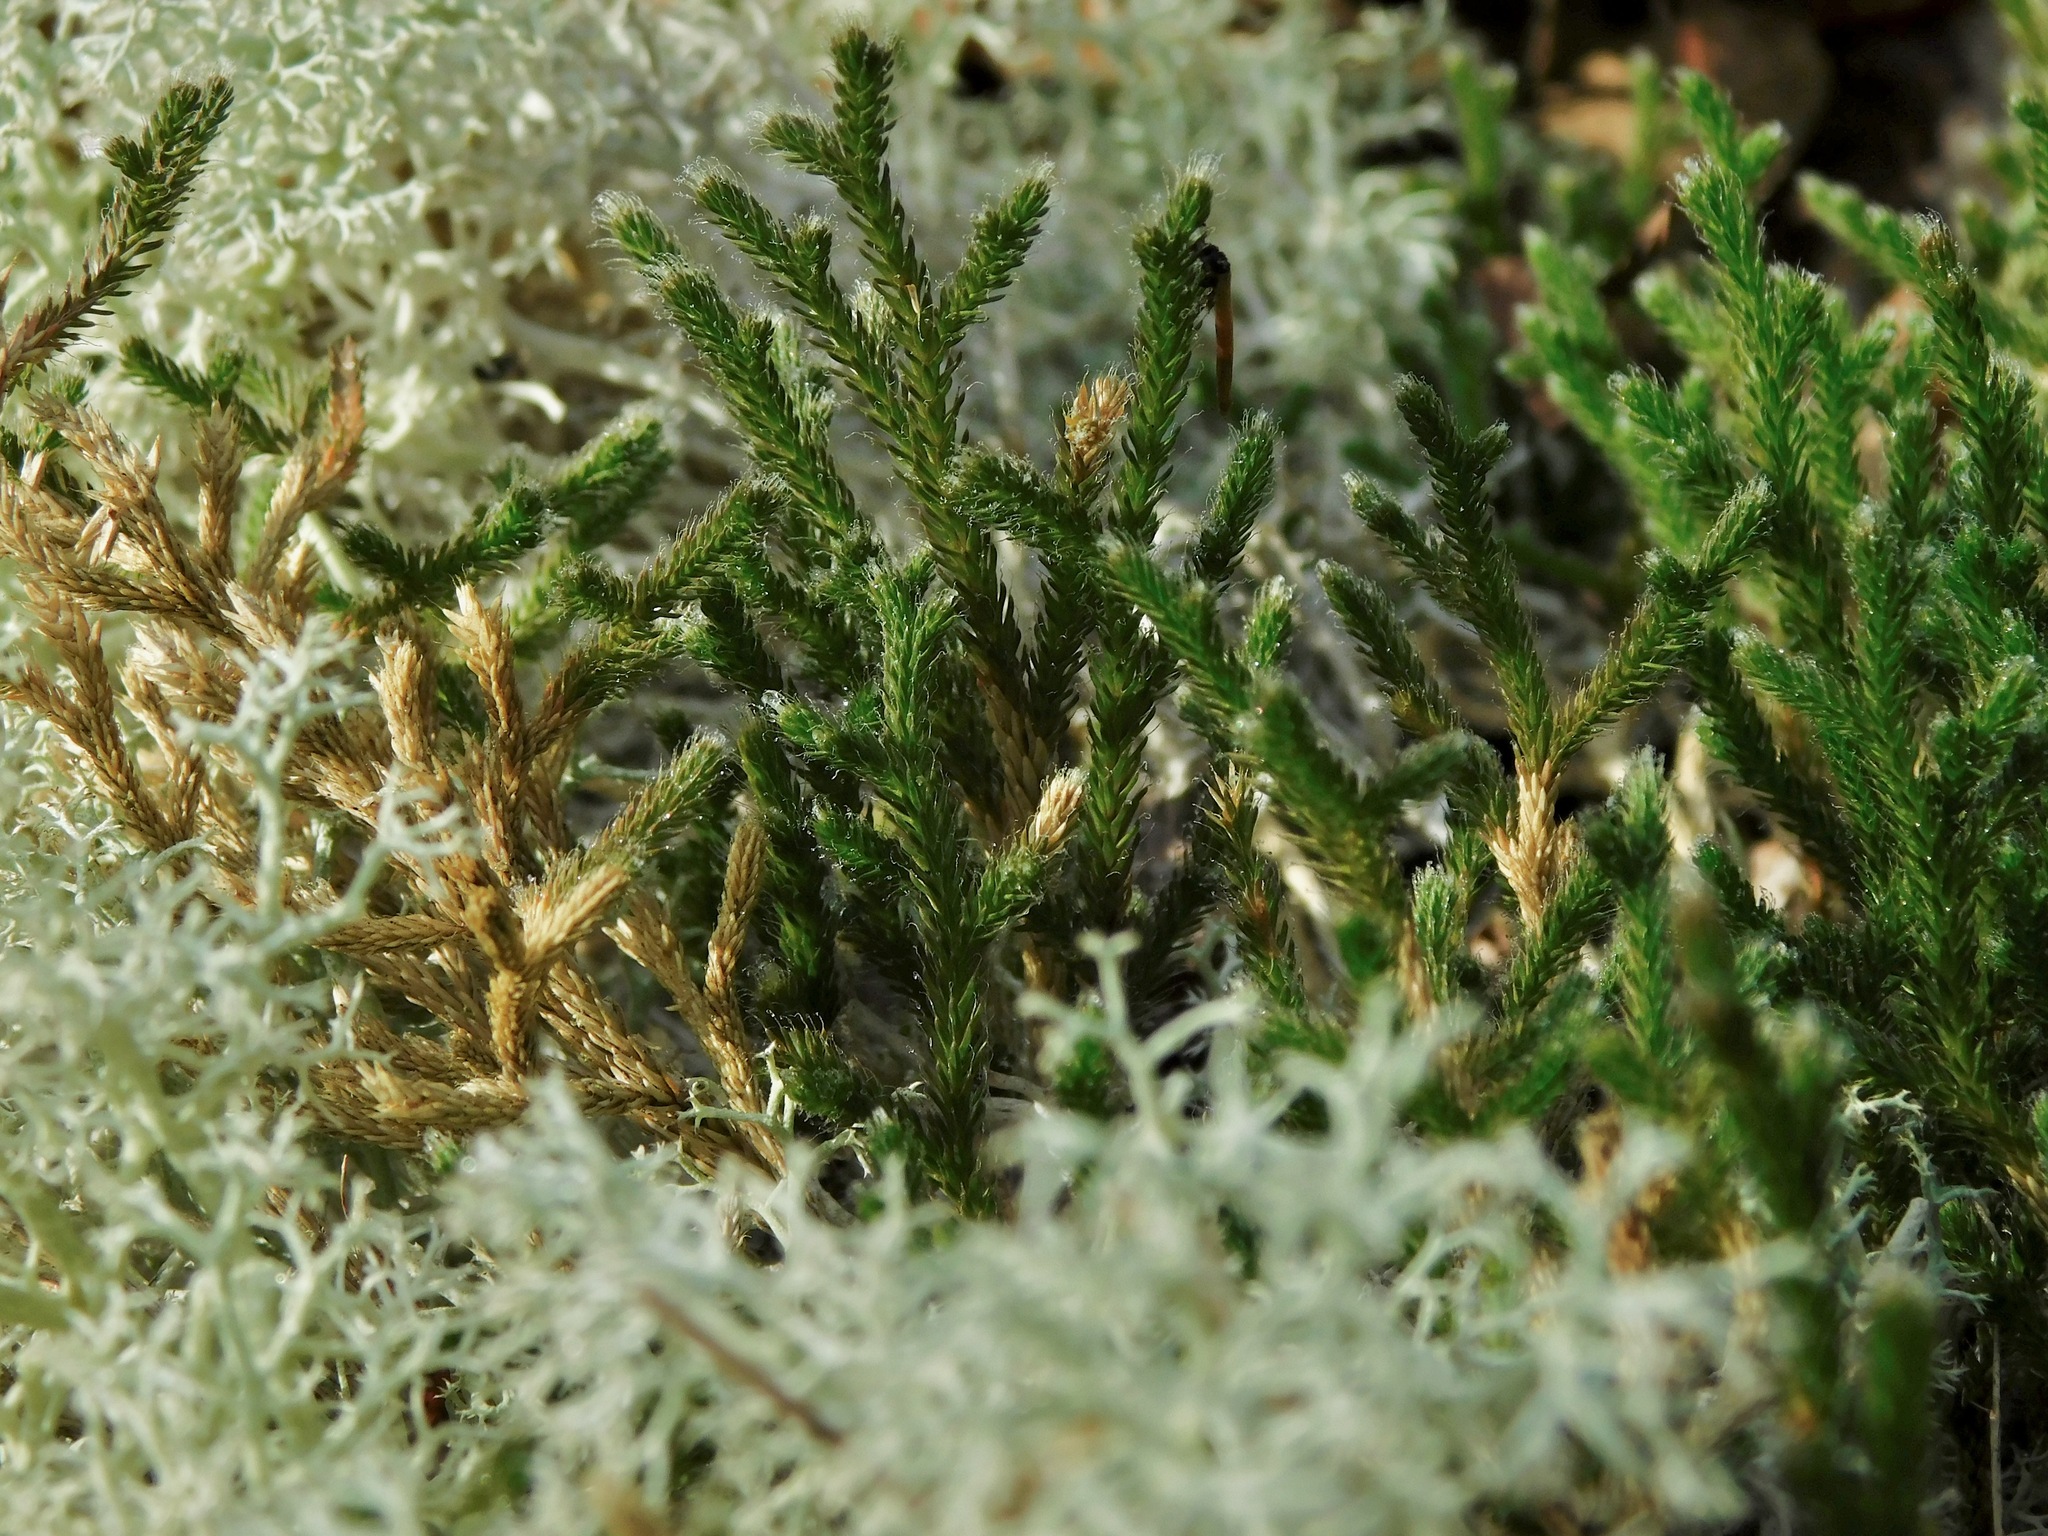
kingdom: Plantae
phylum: Tracheophyta
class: Lycopodiopsida
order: Selaginellales
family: Selaginellaceae
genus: Selaginella
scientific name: Selaginella tortipila
